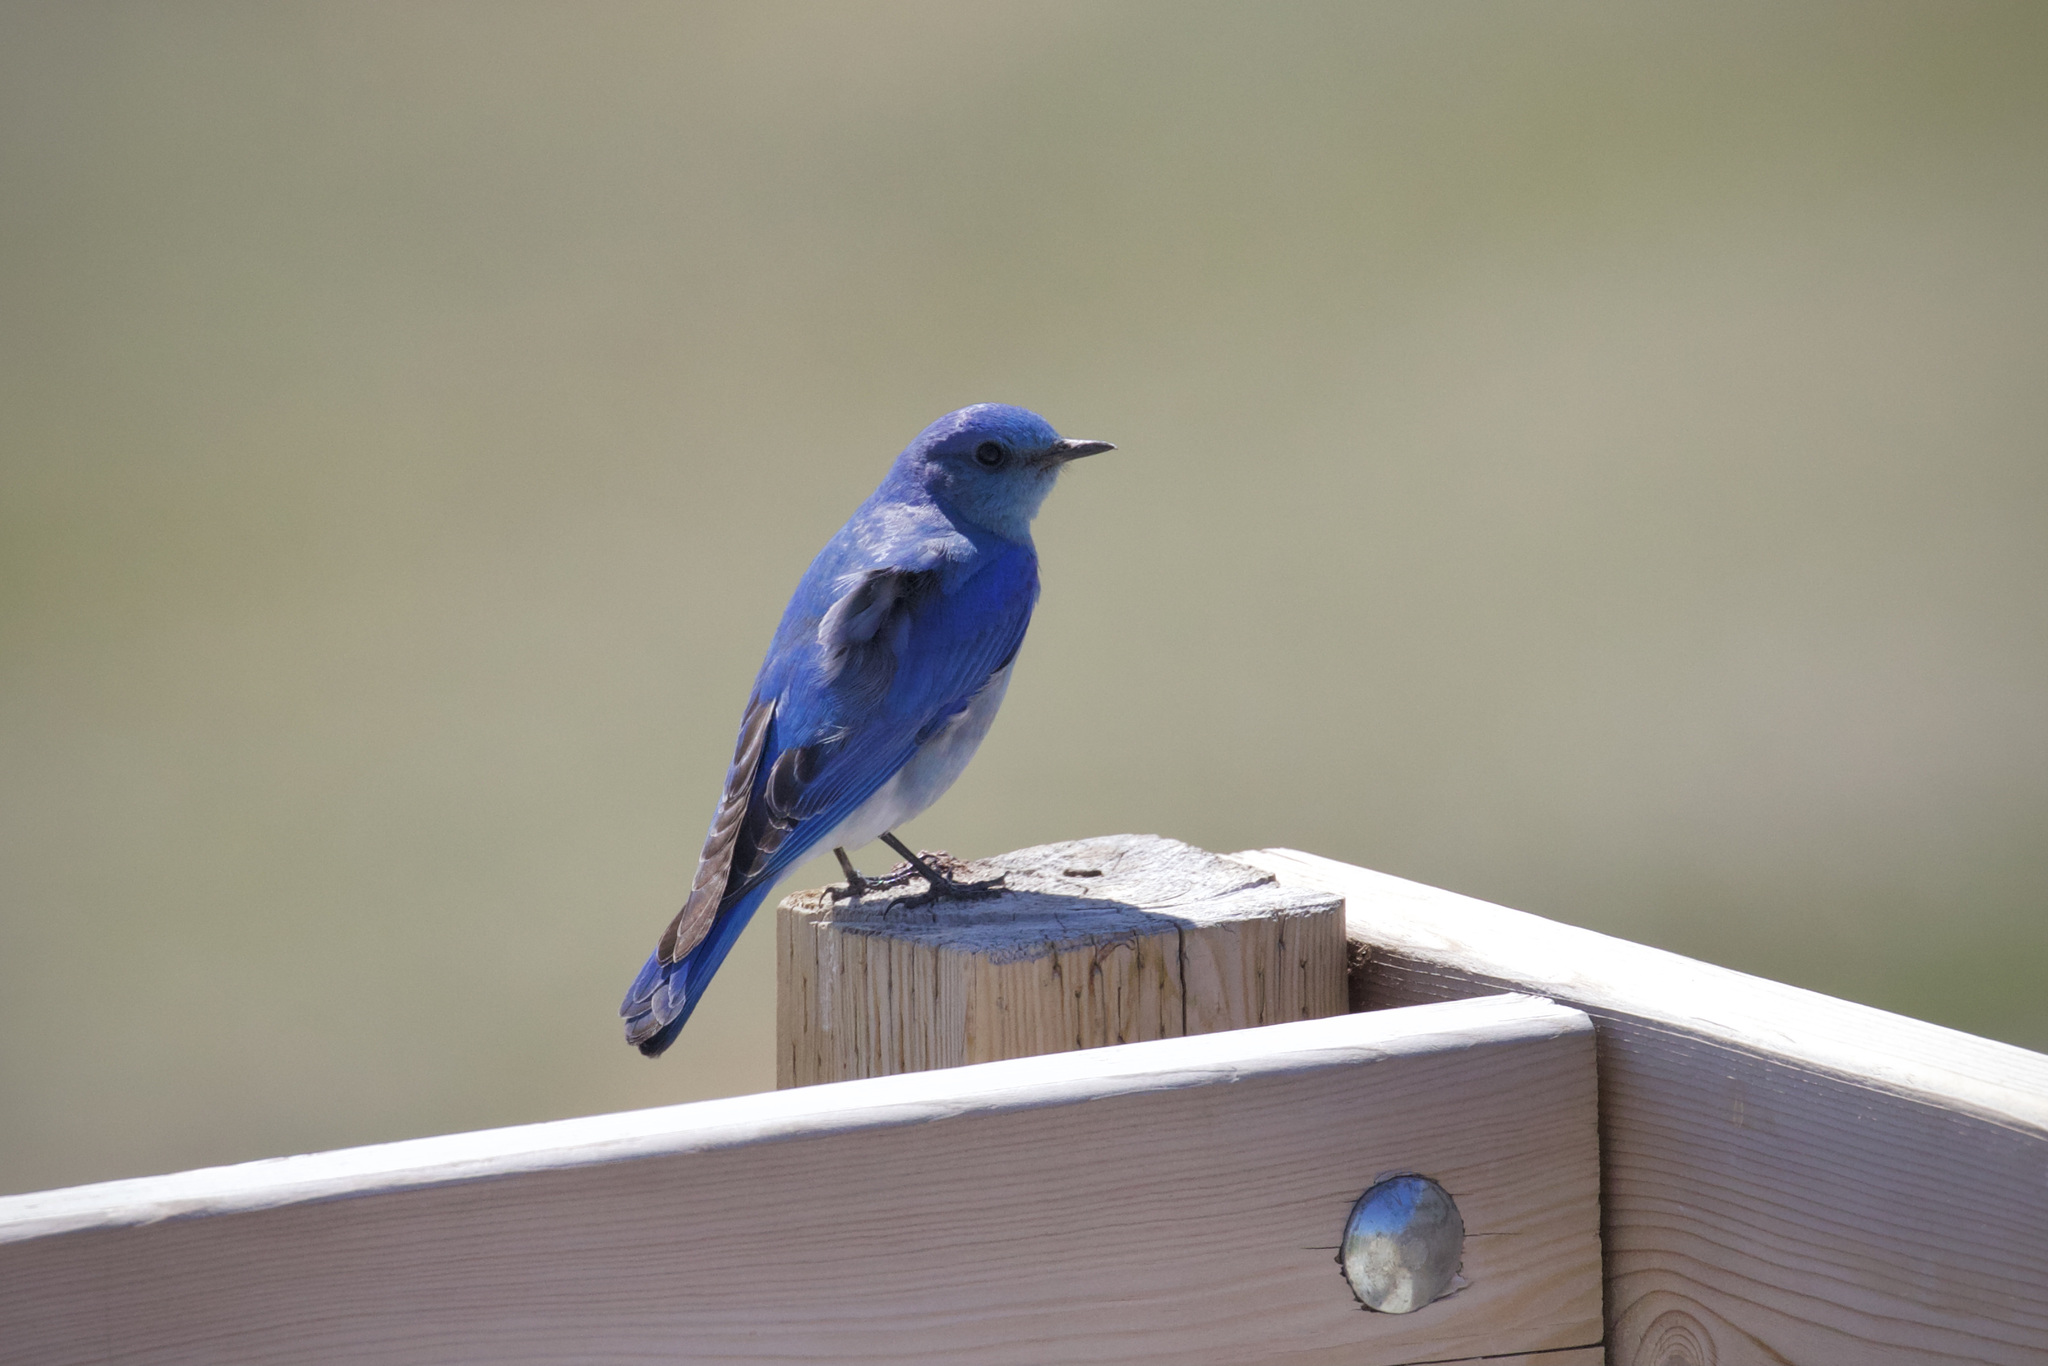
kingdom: Animalia
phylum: Chordata
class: Aves
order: Passeriformes
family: Turdidae
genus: Sialia
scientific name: Sialia currucoides
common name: Mountain bluebird
